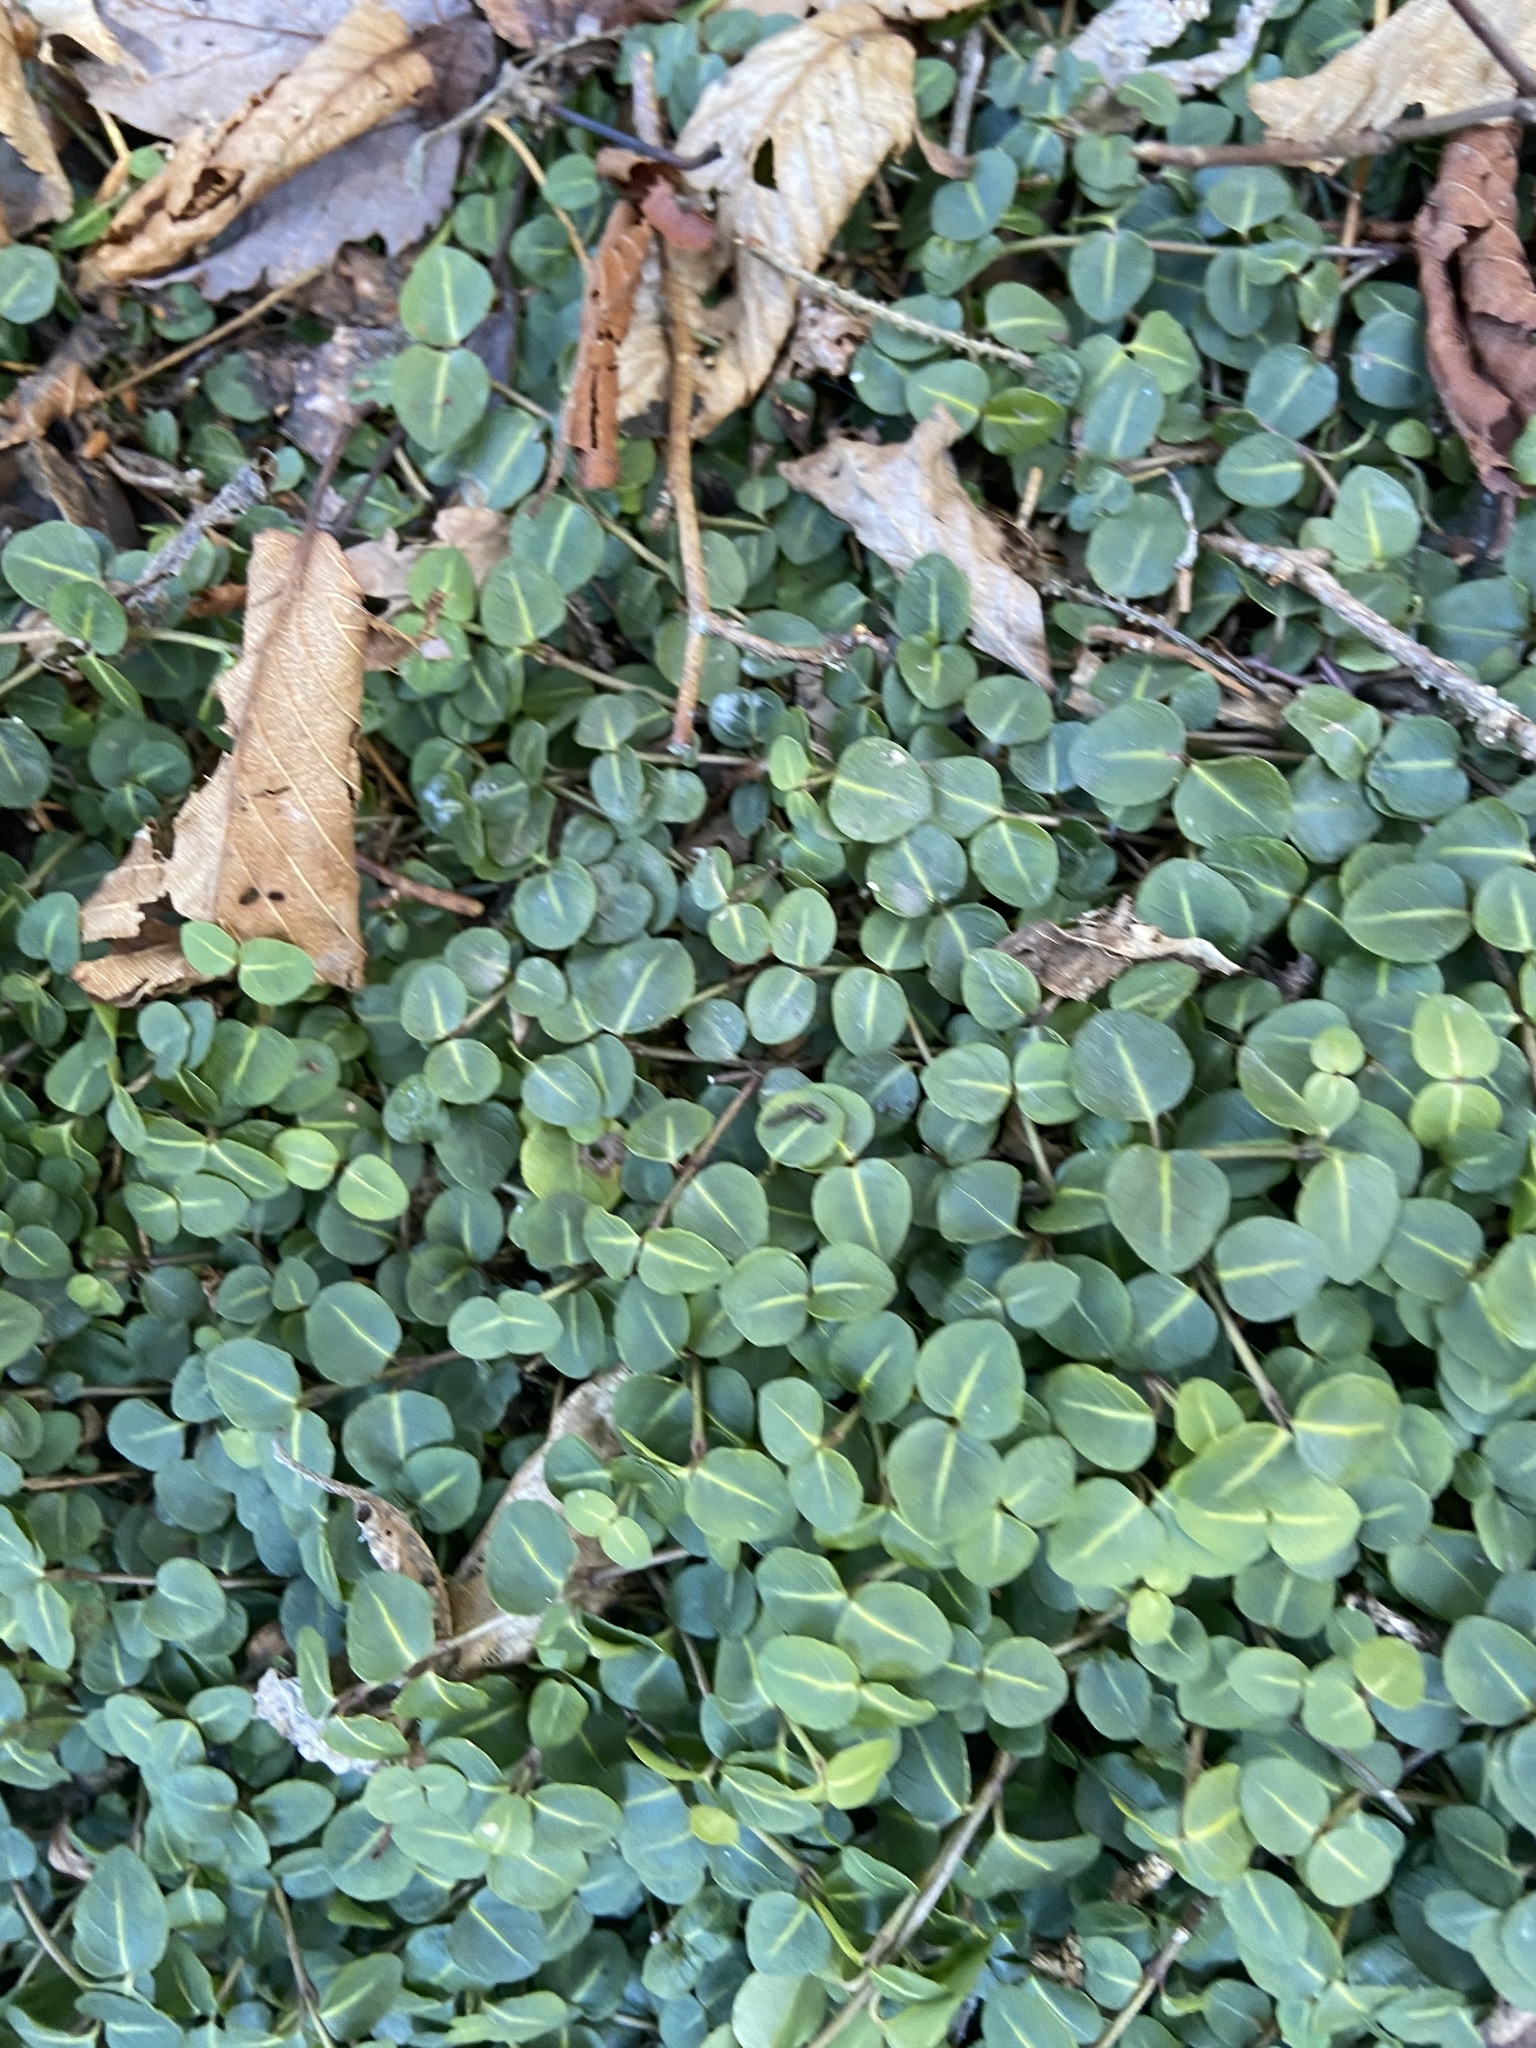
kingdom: Plantae
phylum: Tracheophyta
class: Magnoliopsida
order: Gentianales
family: Rubiaceae
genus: Mitchella
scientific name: Mitchella repens
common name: Partridge-berry
